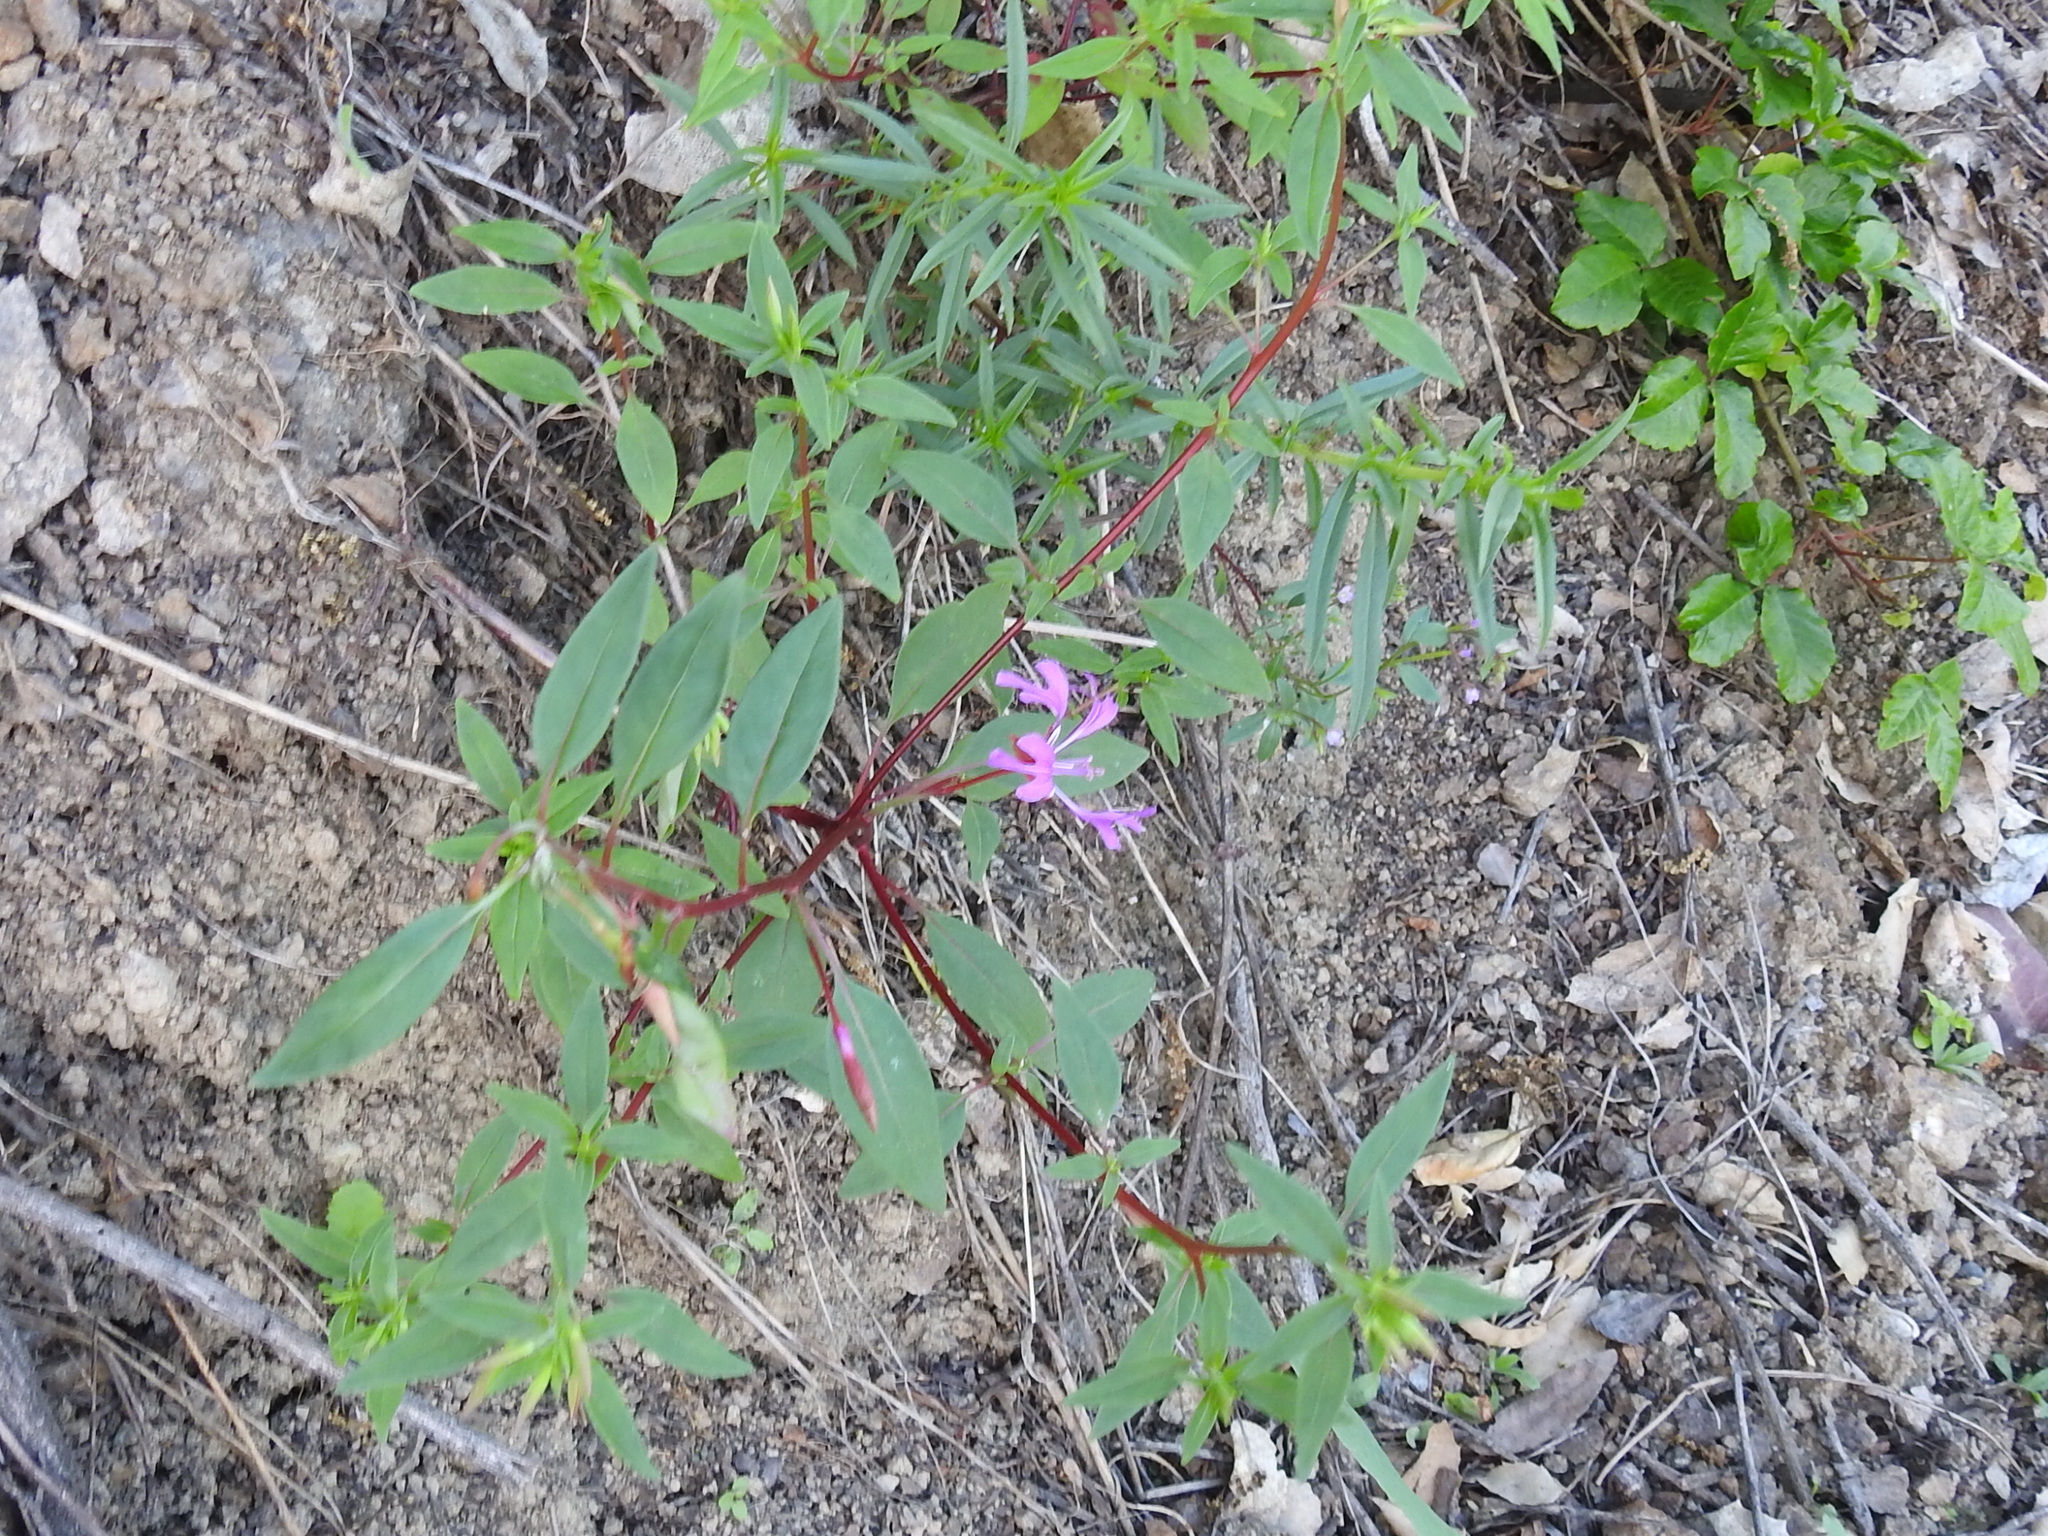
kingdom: Plantae
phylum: Tracheophyta
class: Magnoliopsida
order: Myrtales
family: Onagraceae
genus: Clarkia
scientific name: Clarkia concinna
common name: Red-ribbons
